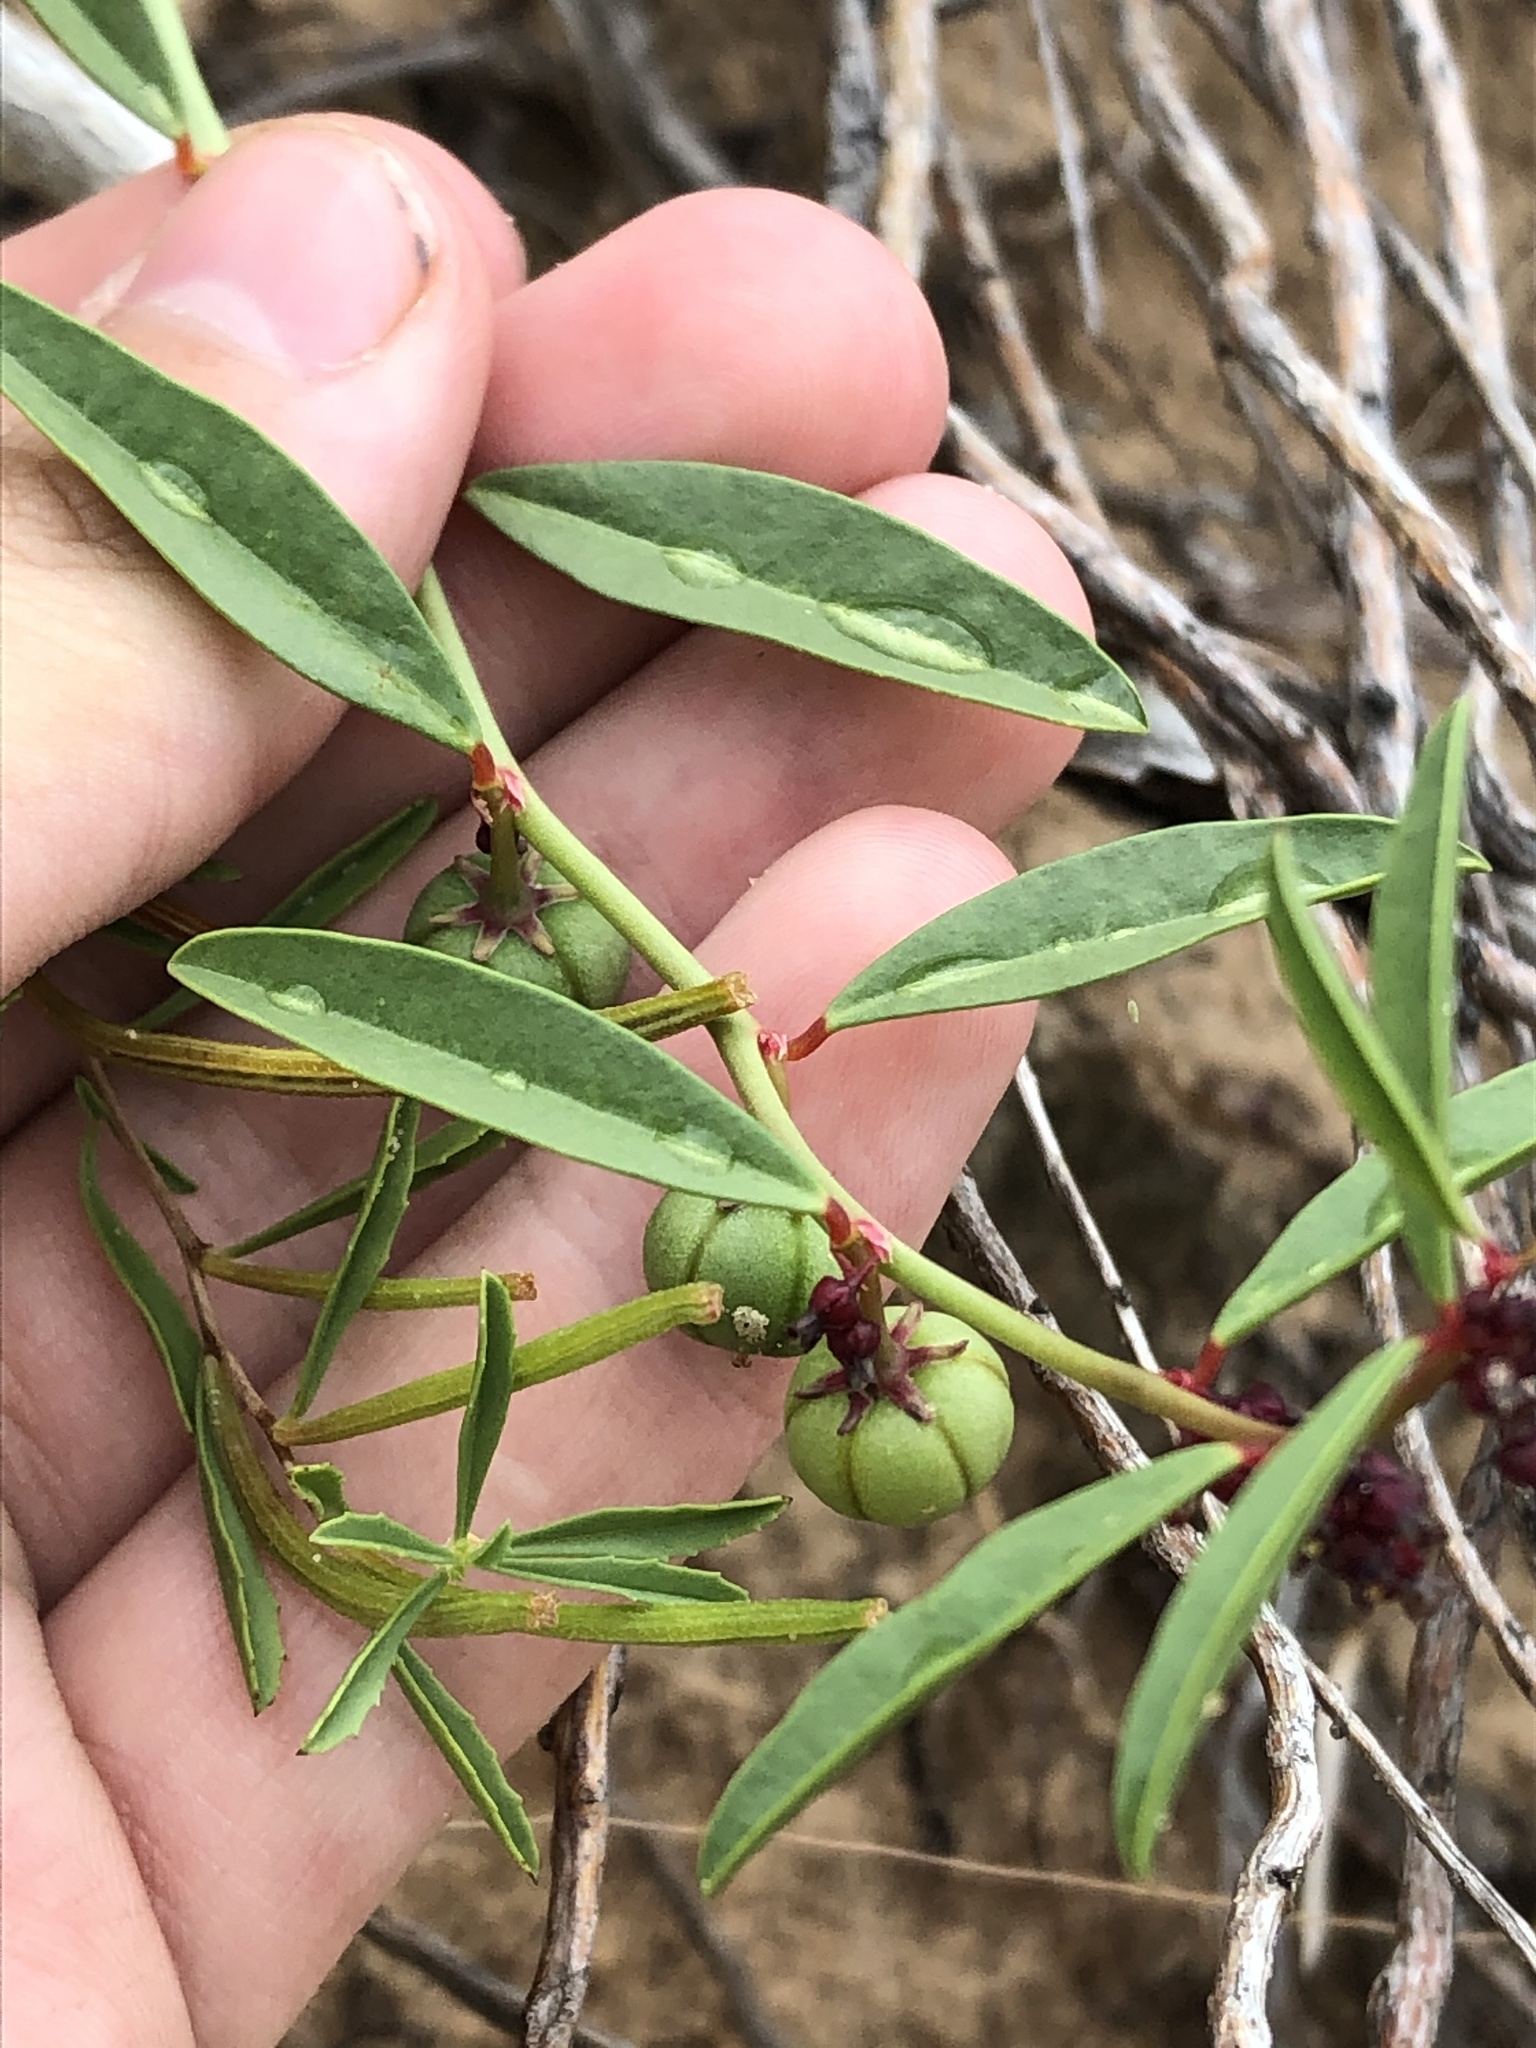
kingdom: Plantae
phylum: Tracheophyta
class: Magnoliopsida
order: Malpighiales
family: Phyllanthaceae
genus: Phyllanthus
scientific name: Phyllanthus warnockii
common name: Sand reverchonia
